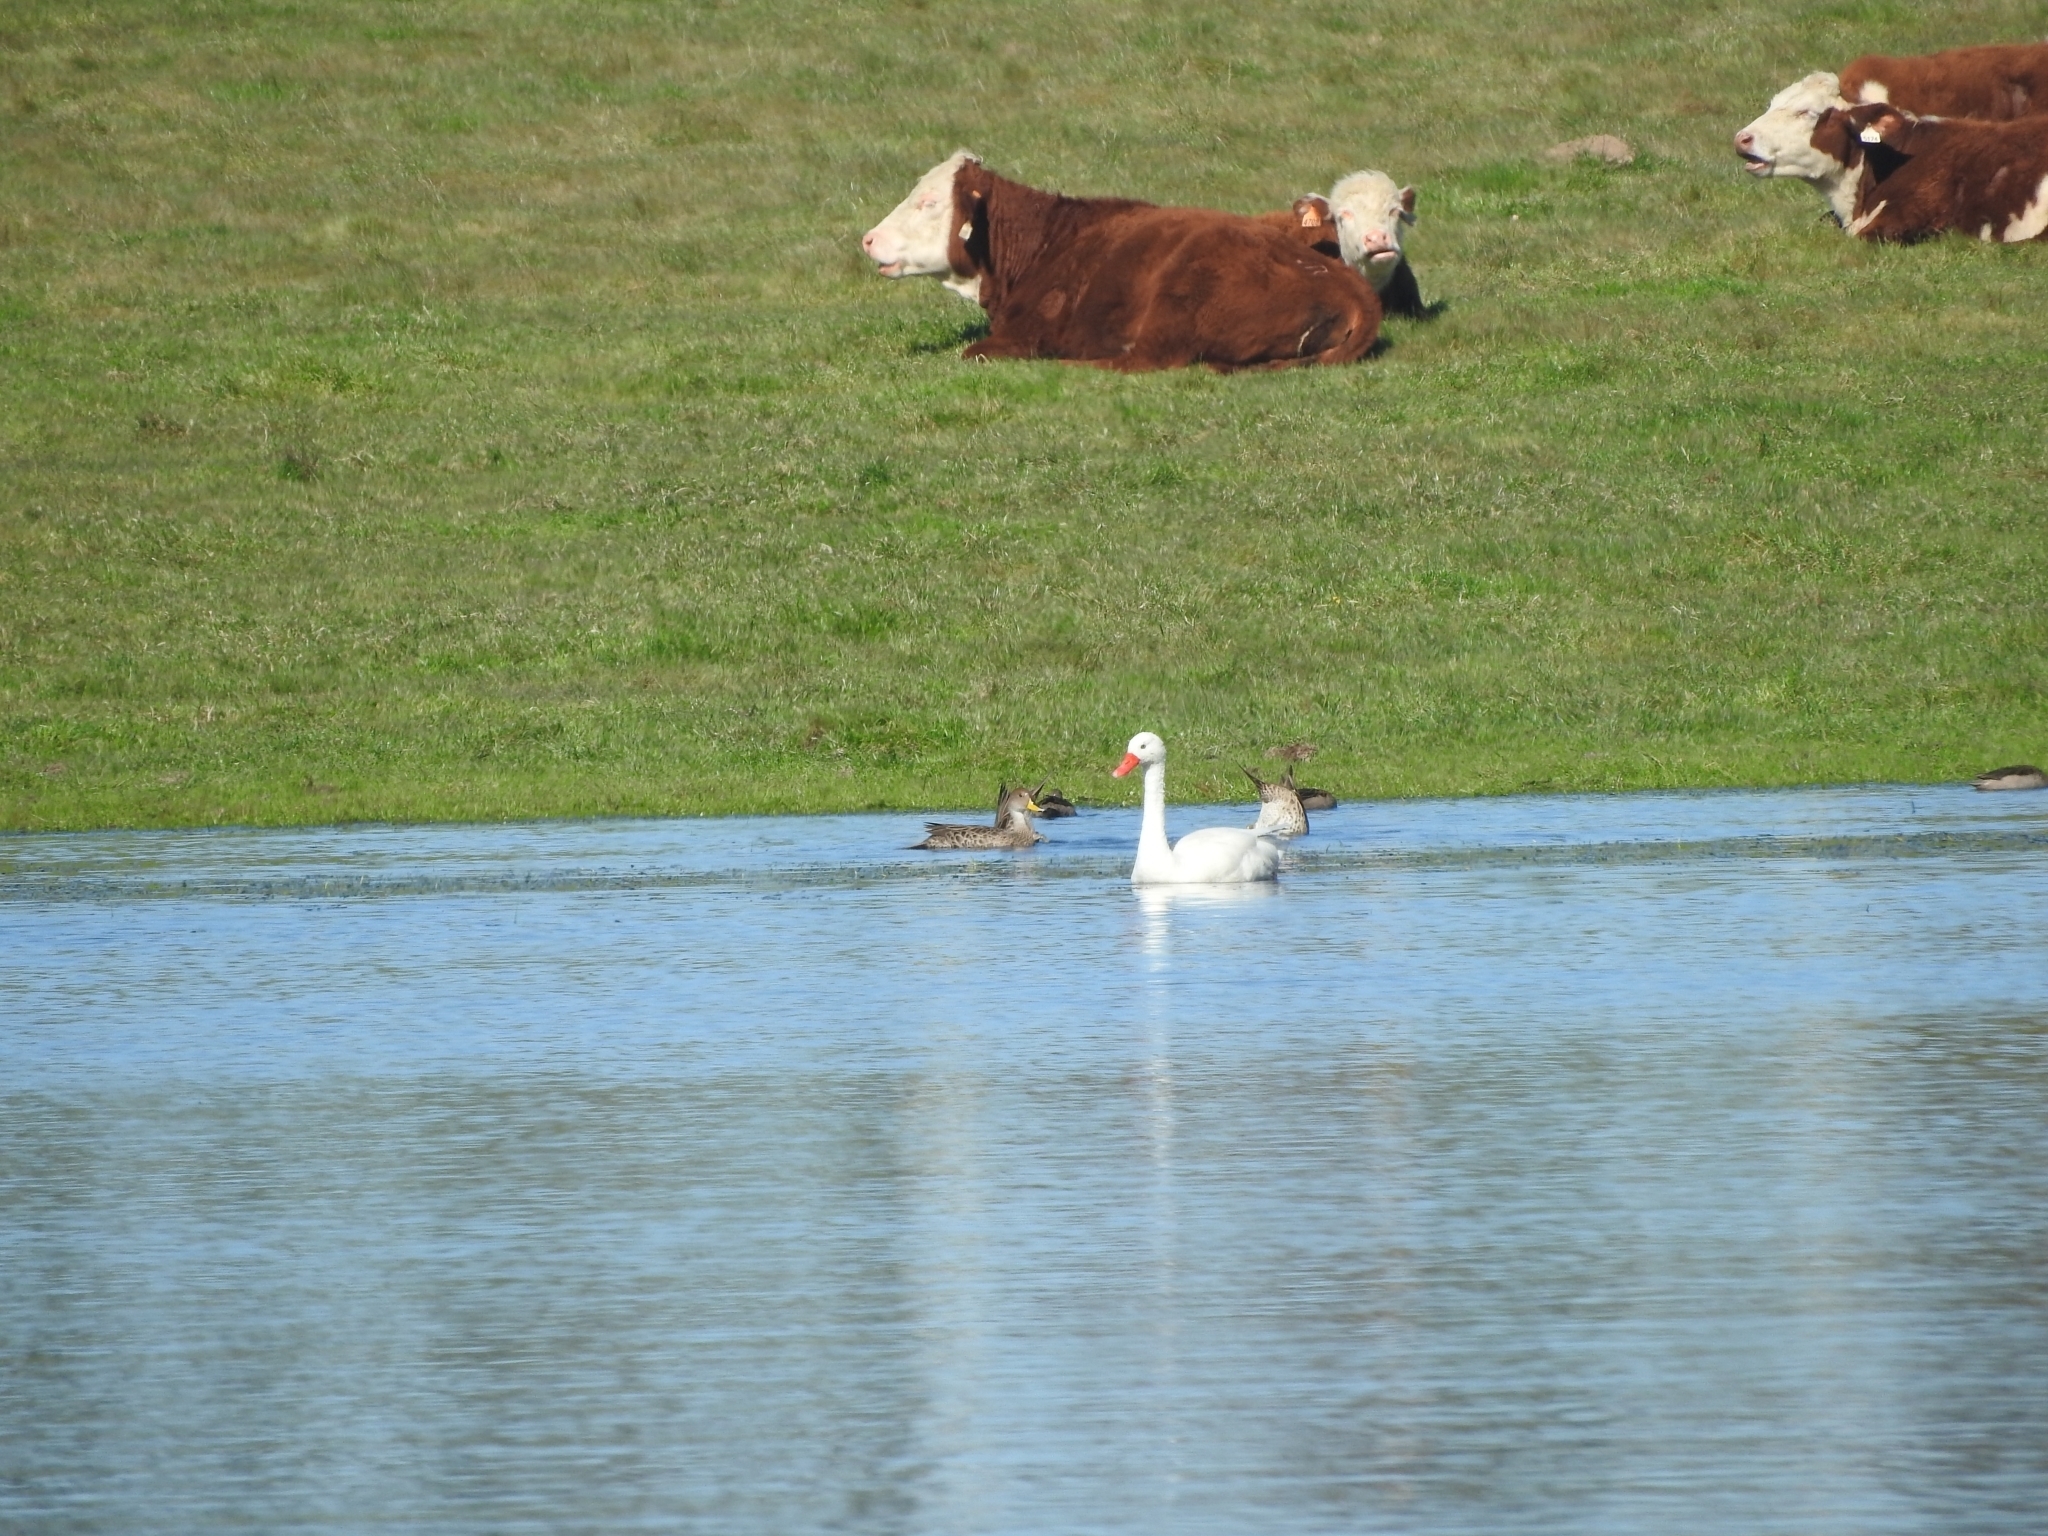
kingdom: Animalia
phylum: Chordata
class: Aves
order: Anseriformes
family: Anatidae
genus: Coscoroba
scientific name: Coscoroba coscoroba
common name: Coscoroba swan
